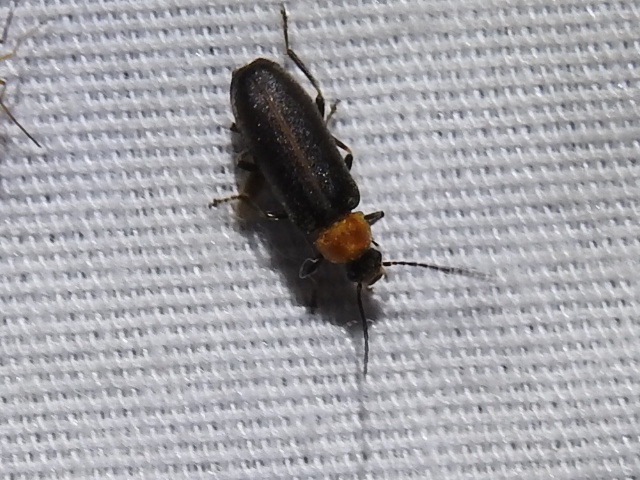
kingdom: Animalia
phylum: Arthropoda
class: Insecta
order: Coleoptera
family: Melandryidae
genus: Osphya
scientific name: Osphya varians
